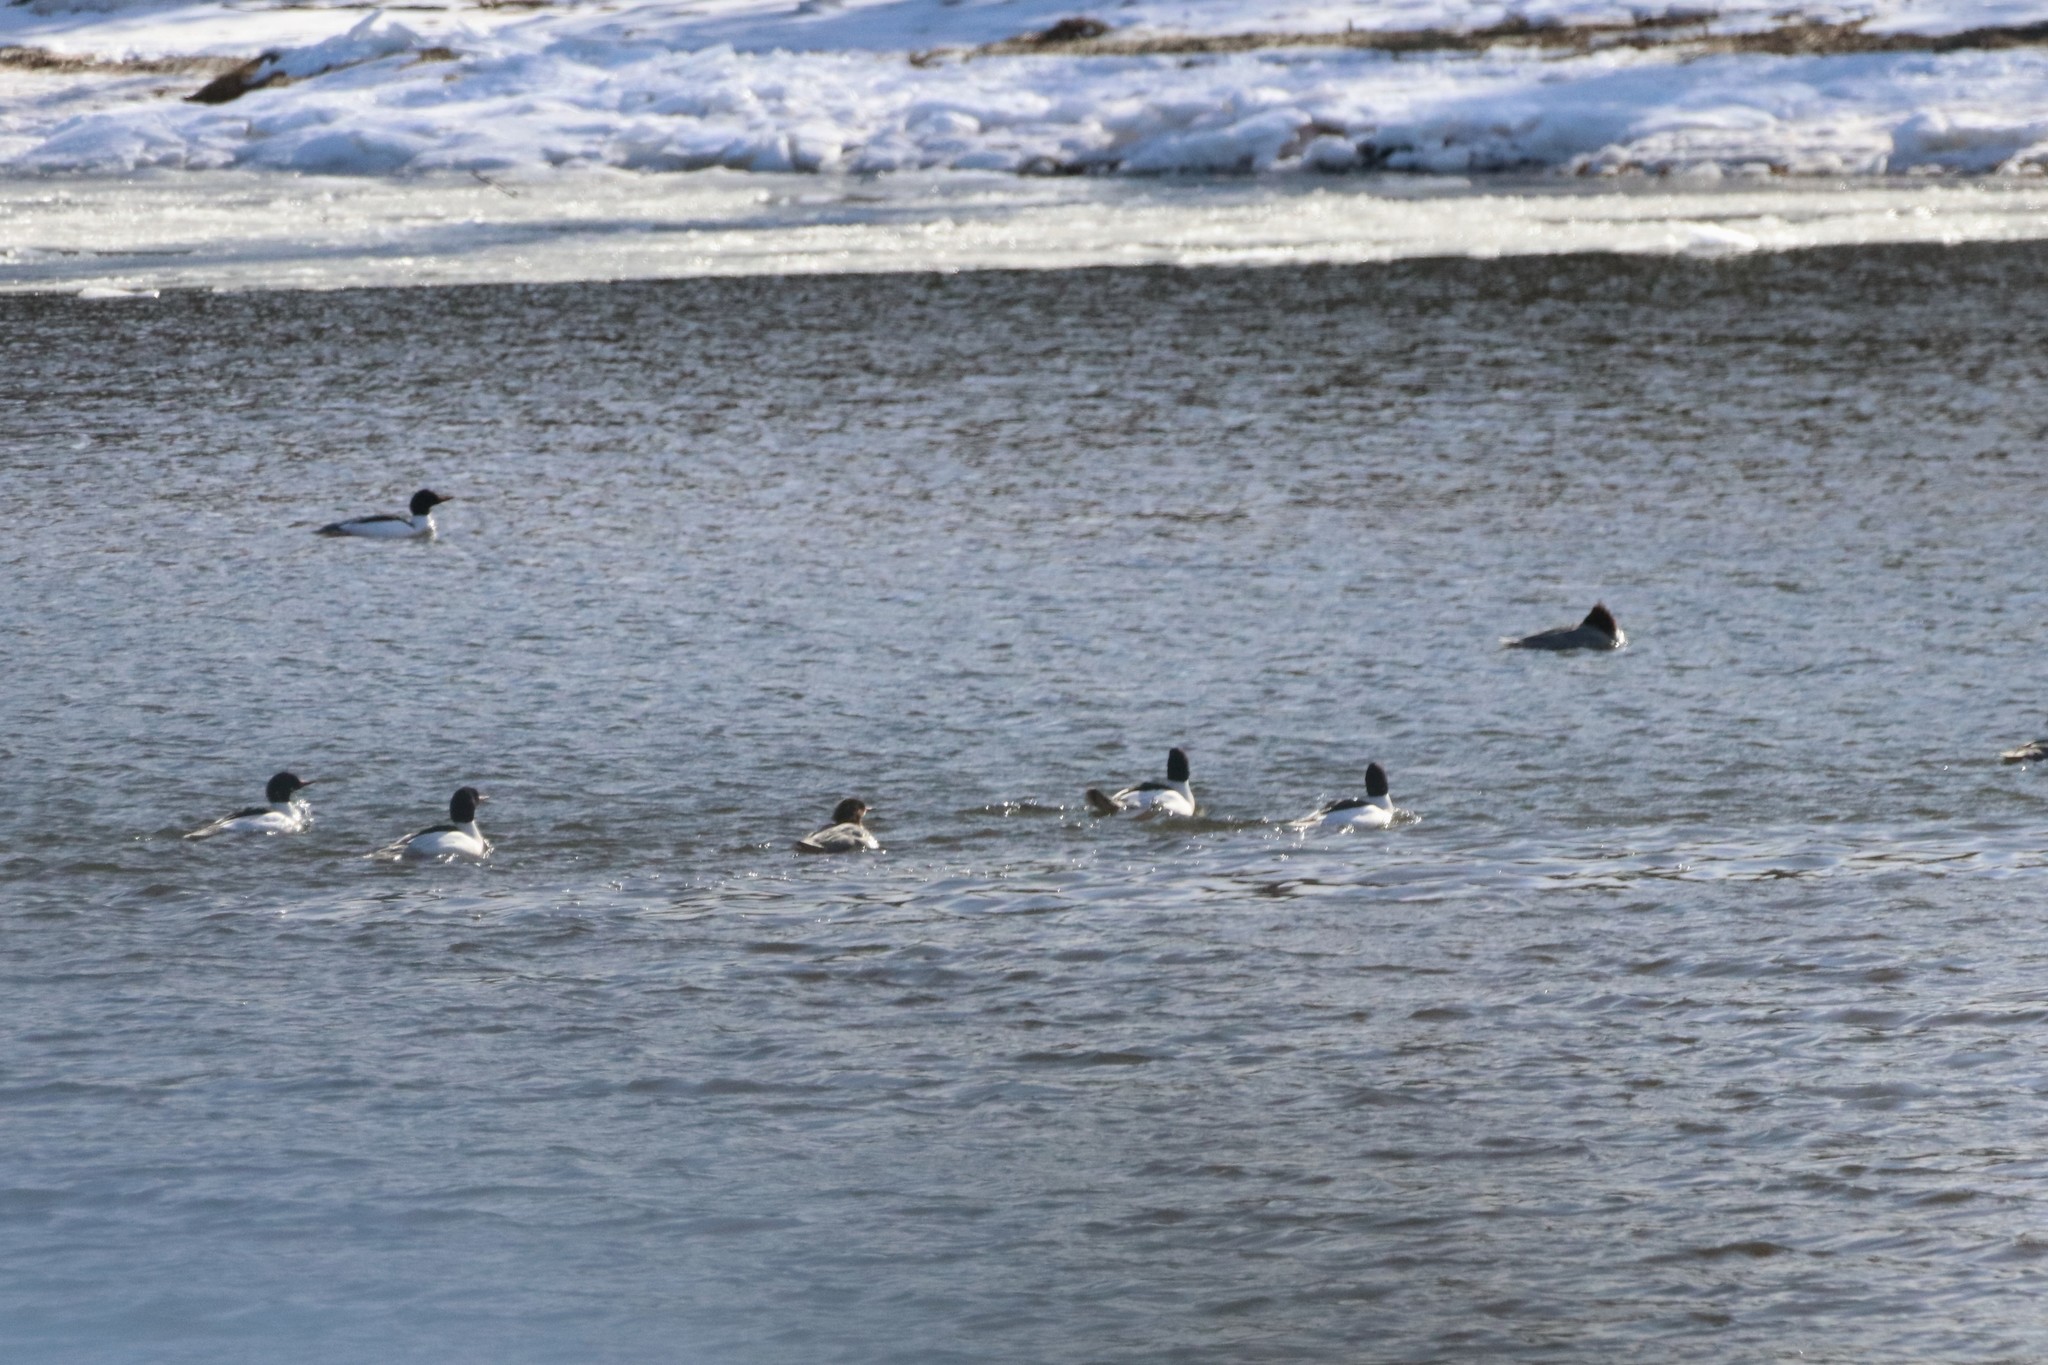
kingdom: Animalia
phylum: Chordata
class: Aves
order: Anseriformes
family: Anatidae
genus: Mergus
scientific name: Mergus merganser
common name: Common merganser
